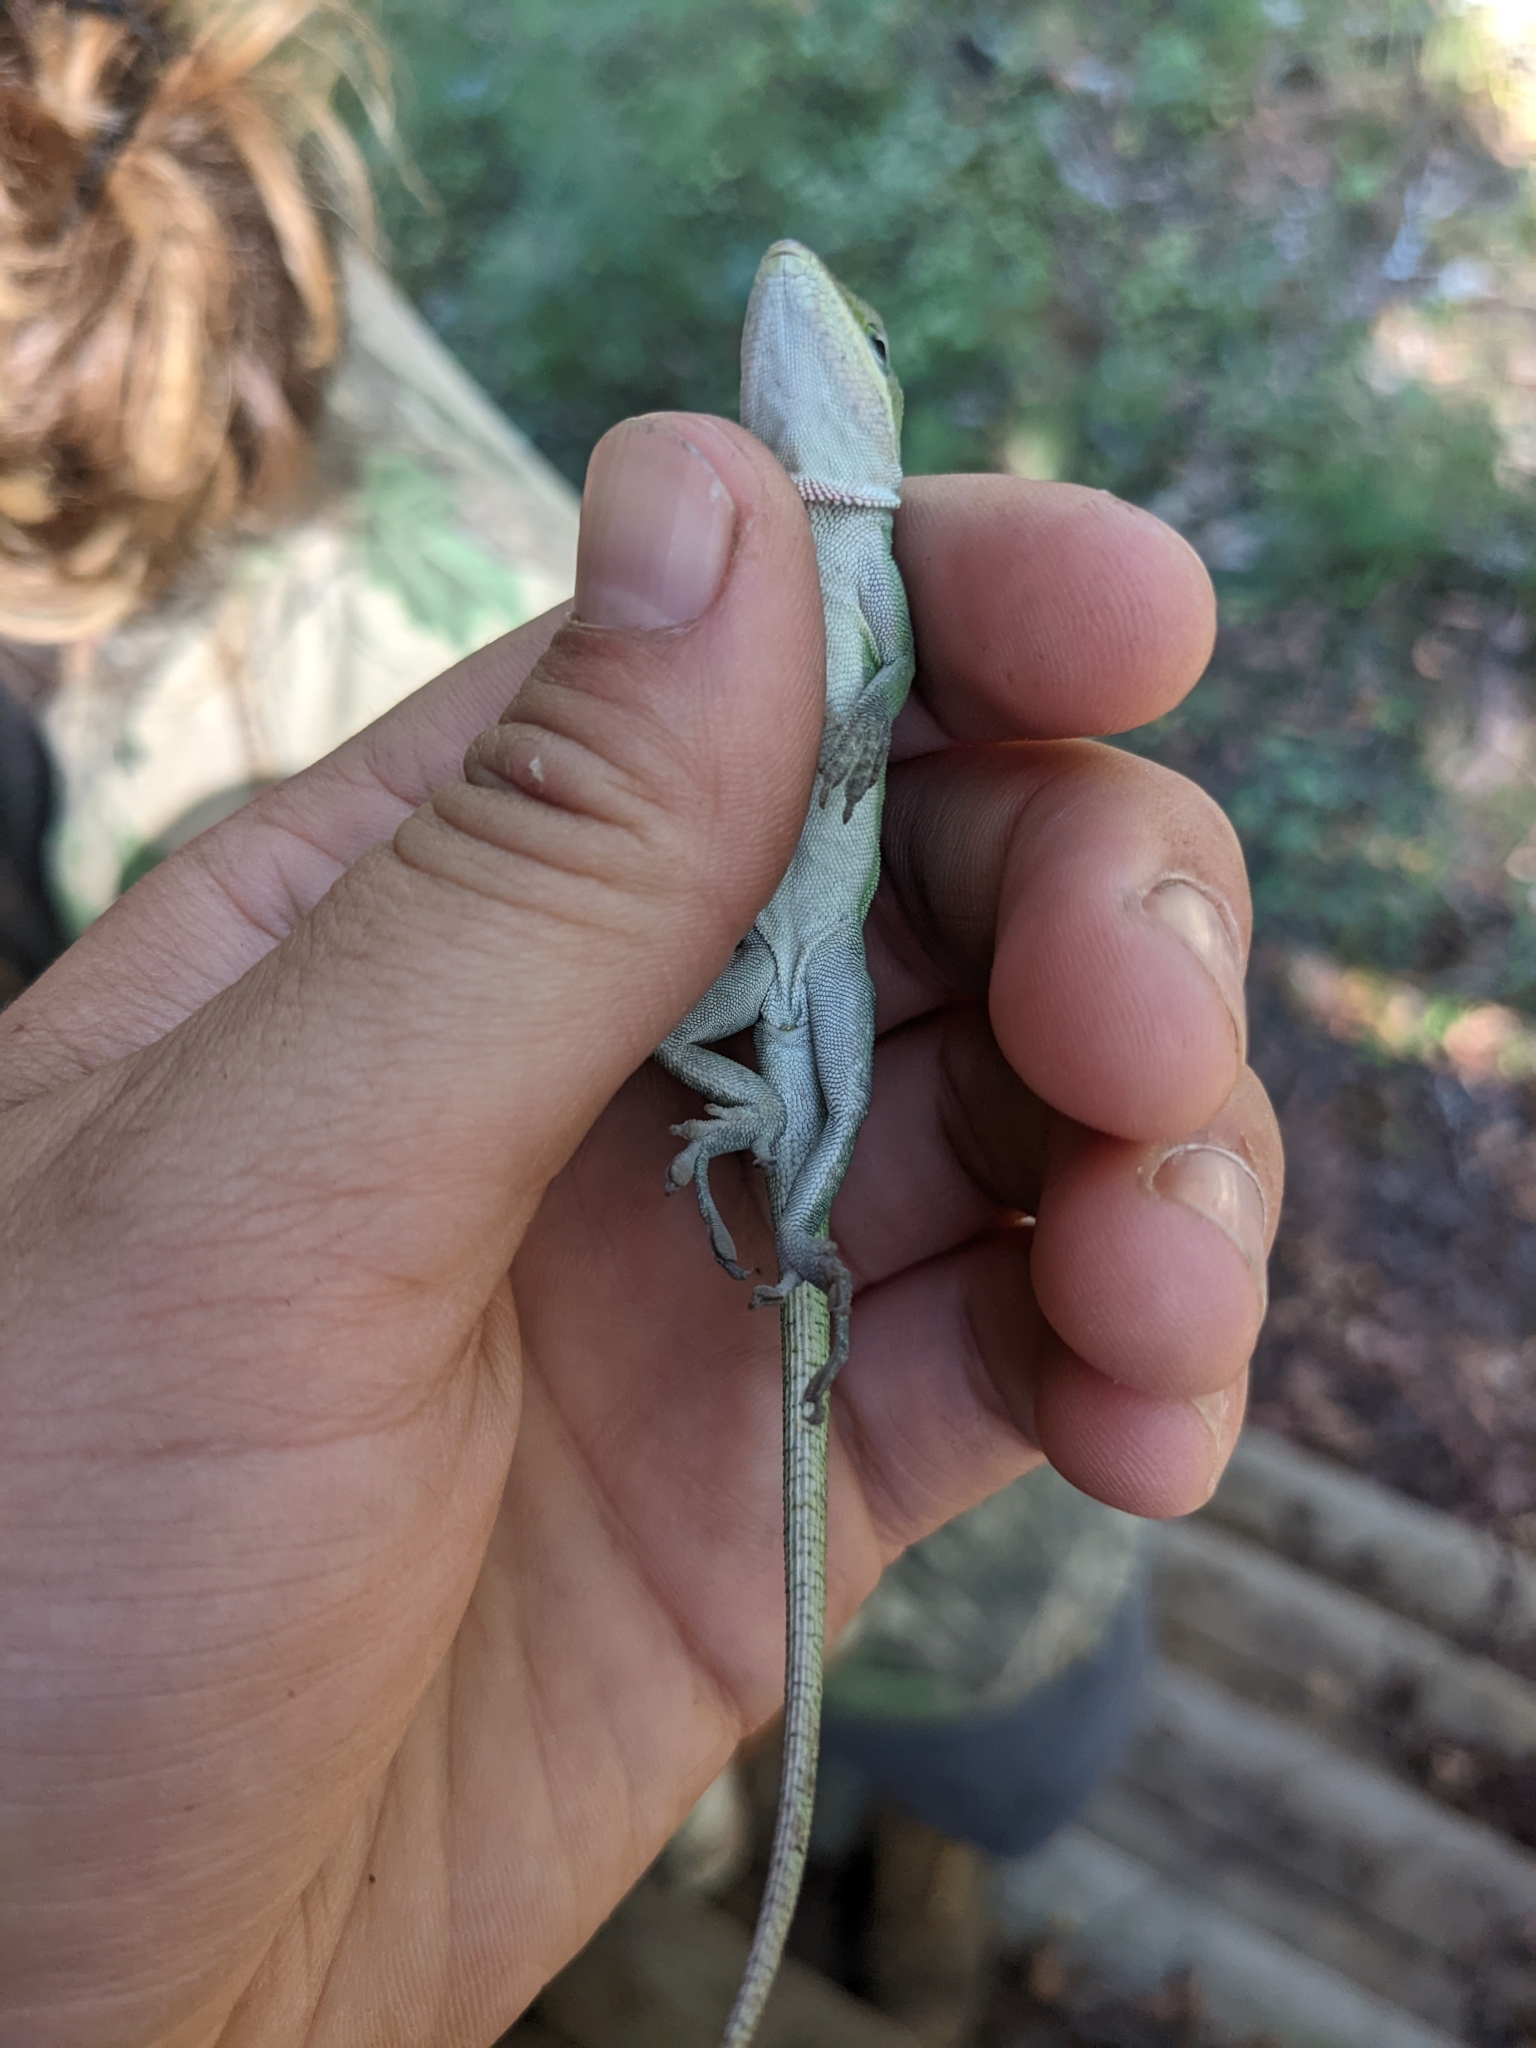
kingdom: Animalia
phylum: Chordata
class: Squamata
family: Dactyloidae
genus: Anolis
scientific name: Anolis carolinensis
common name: Green anole
